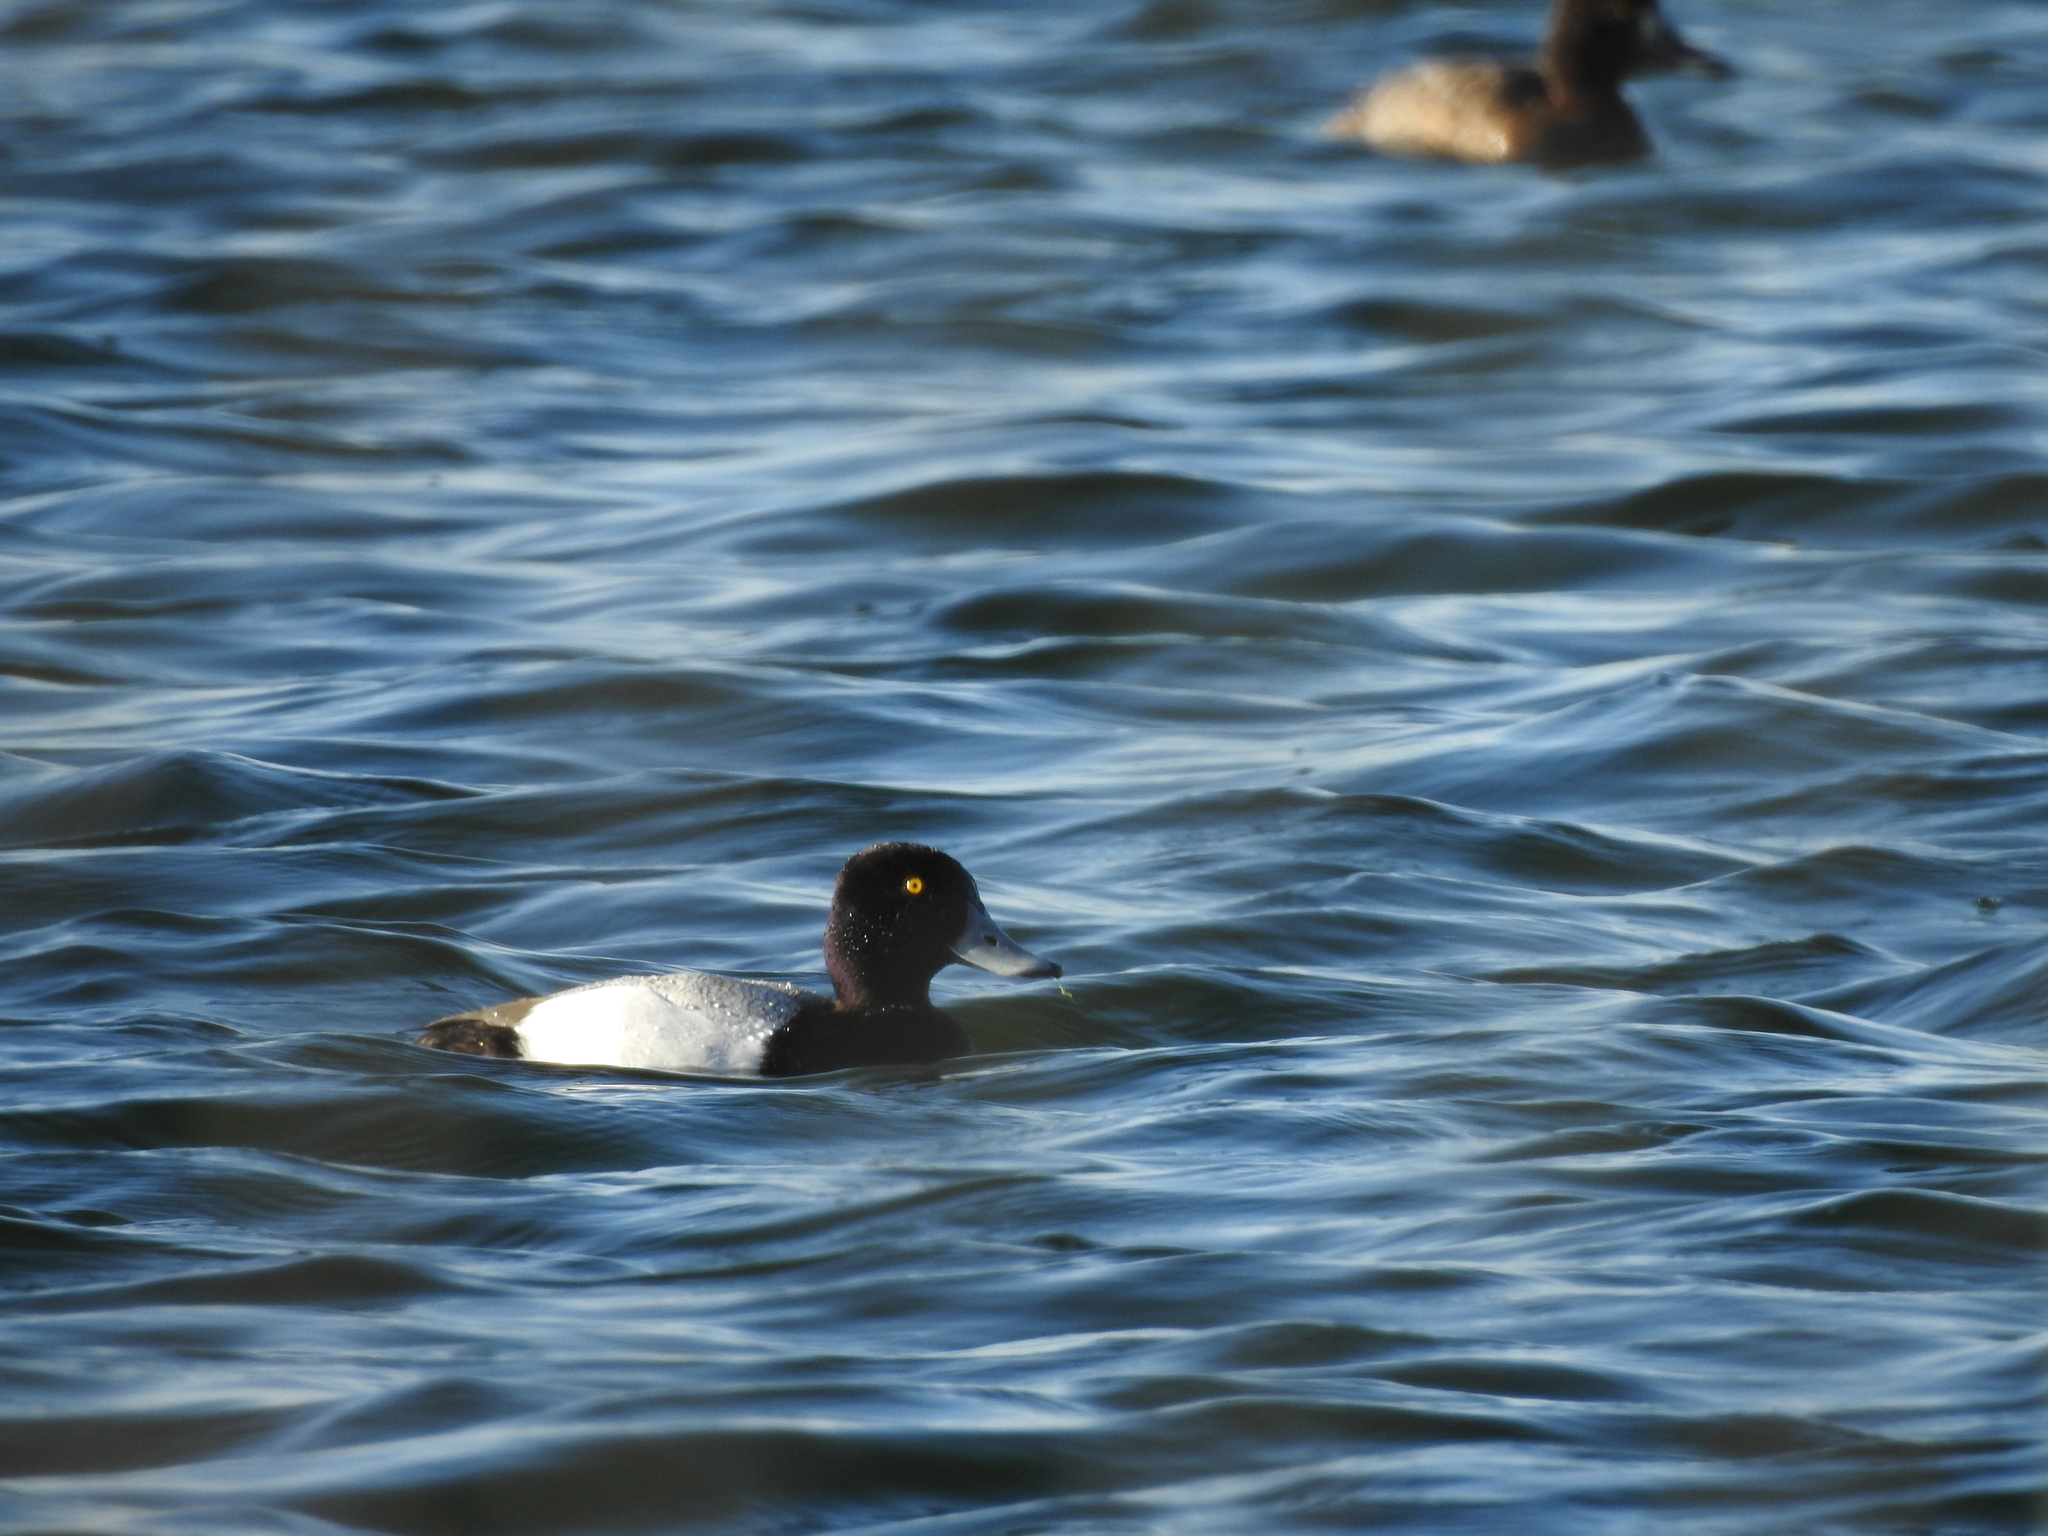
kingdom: Animalia
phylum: Chordata
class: Aves
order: Anseriformes
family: Anatidae
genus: Aythya
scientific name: Aythya affinis
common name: Lesser scaup
